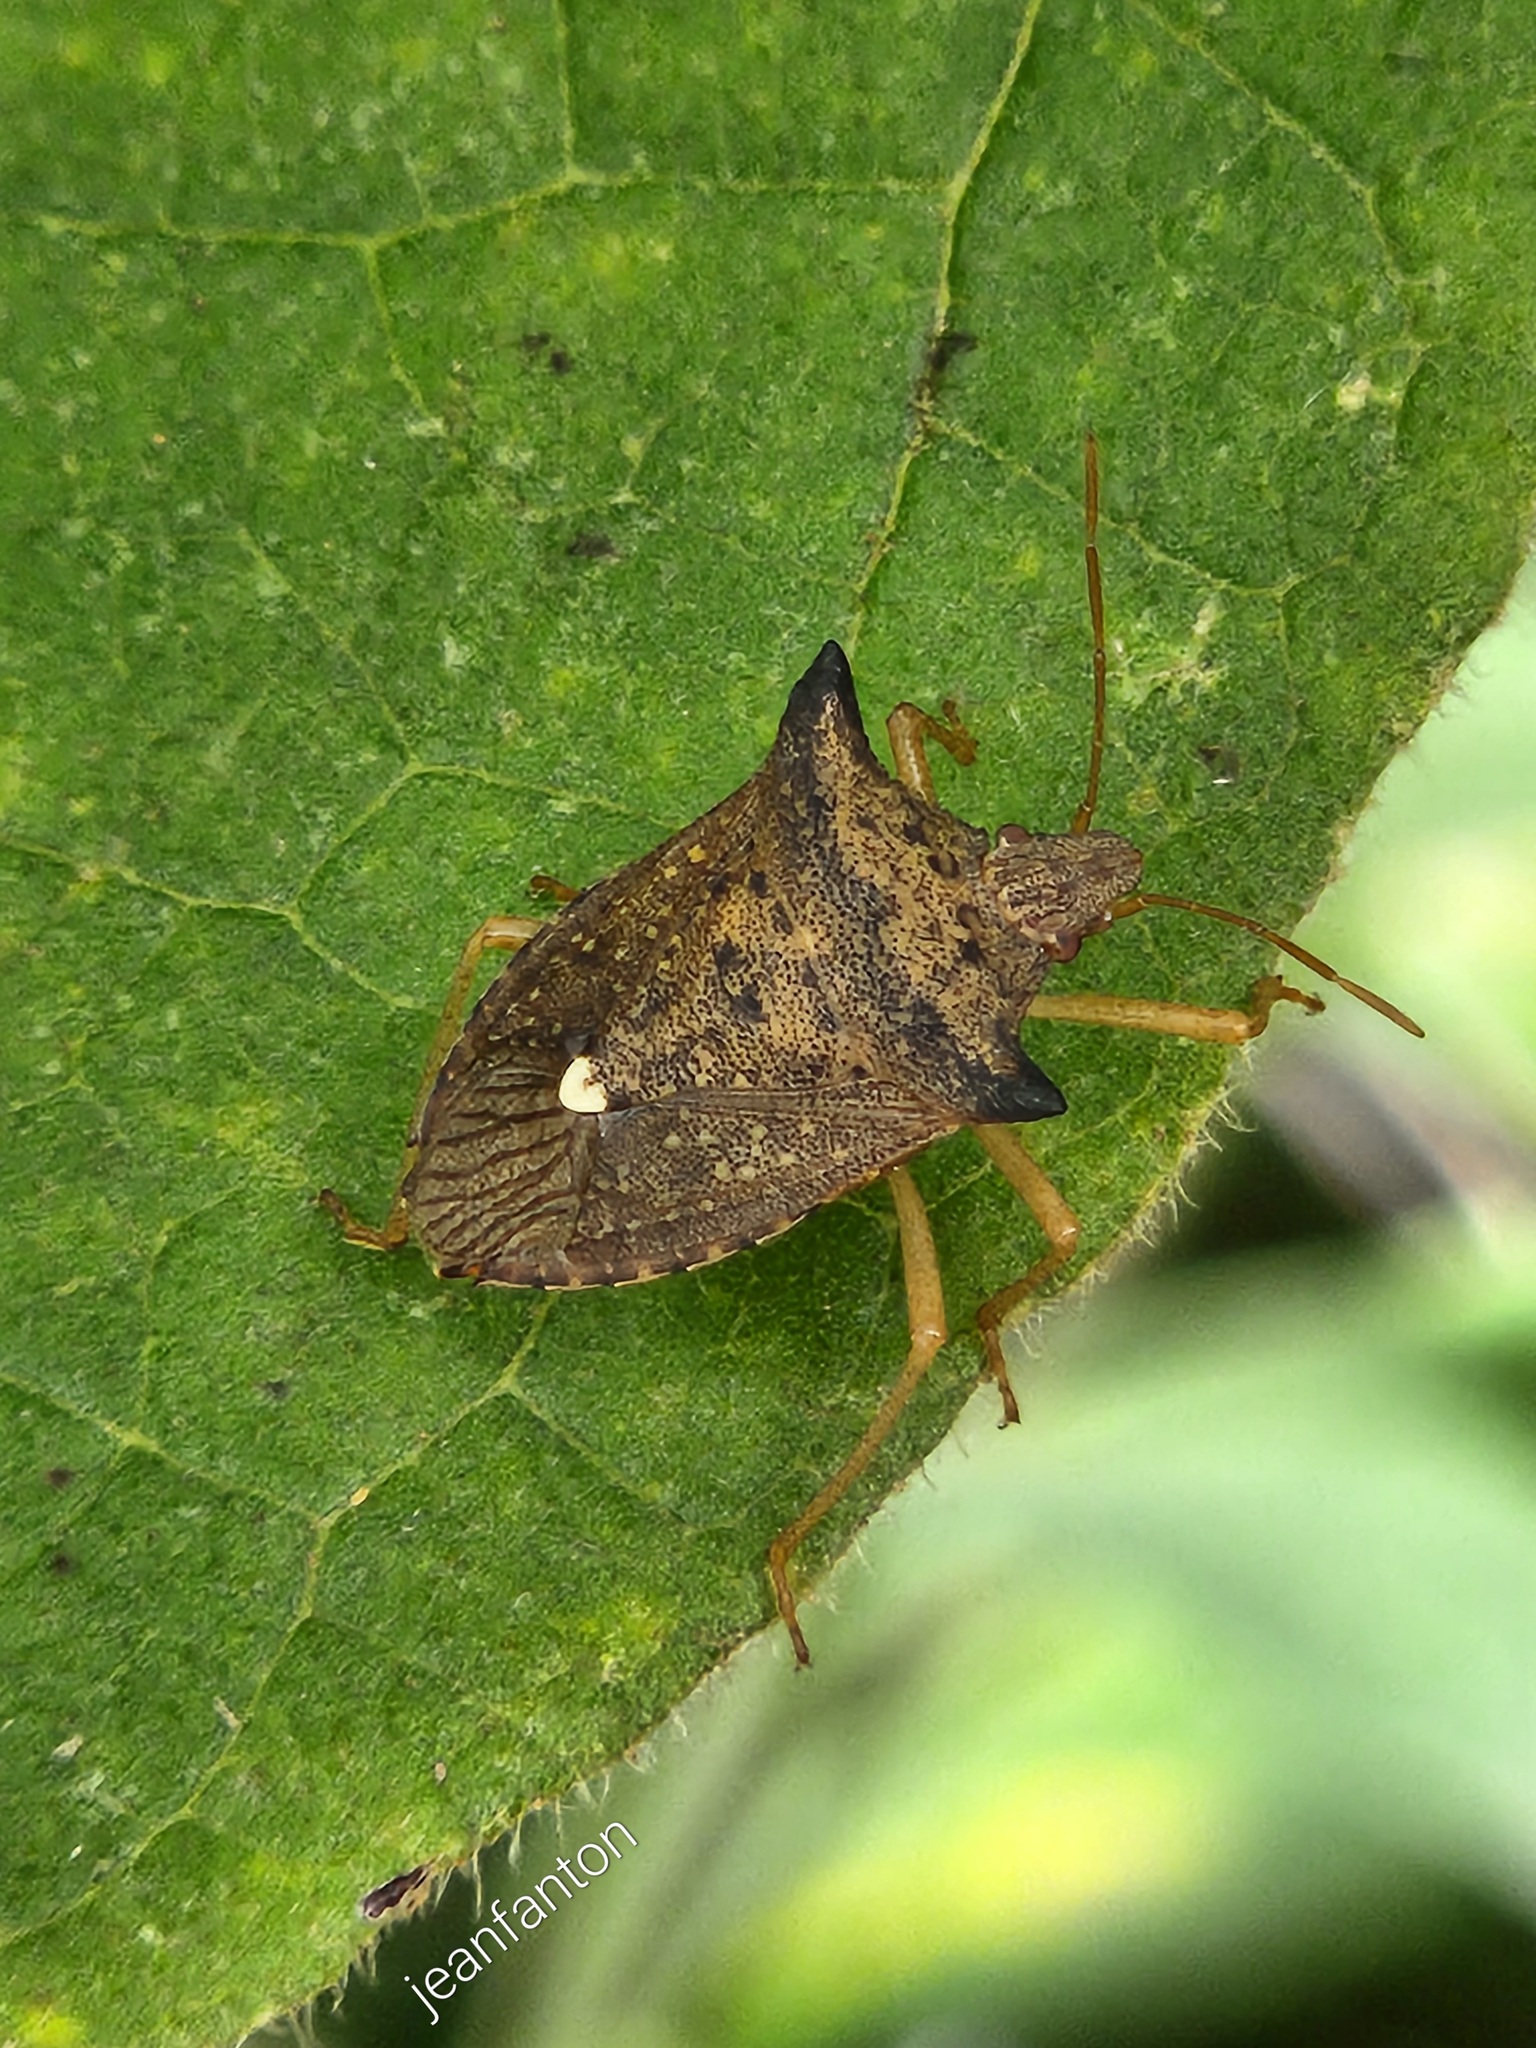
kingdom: Animalia
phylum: Arthropoda
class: Insecta
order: Hemiptera
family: Pentatomidae
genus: Euschistus
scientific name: Euschistus heros
